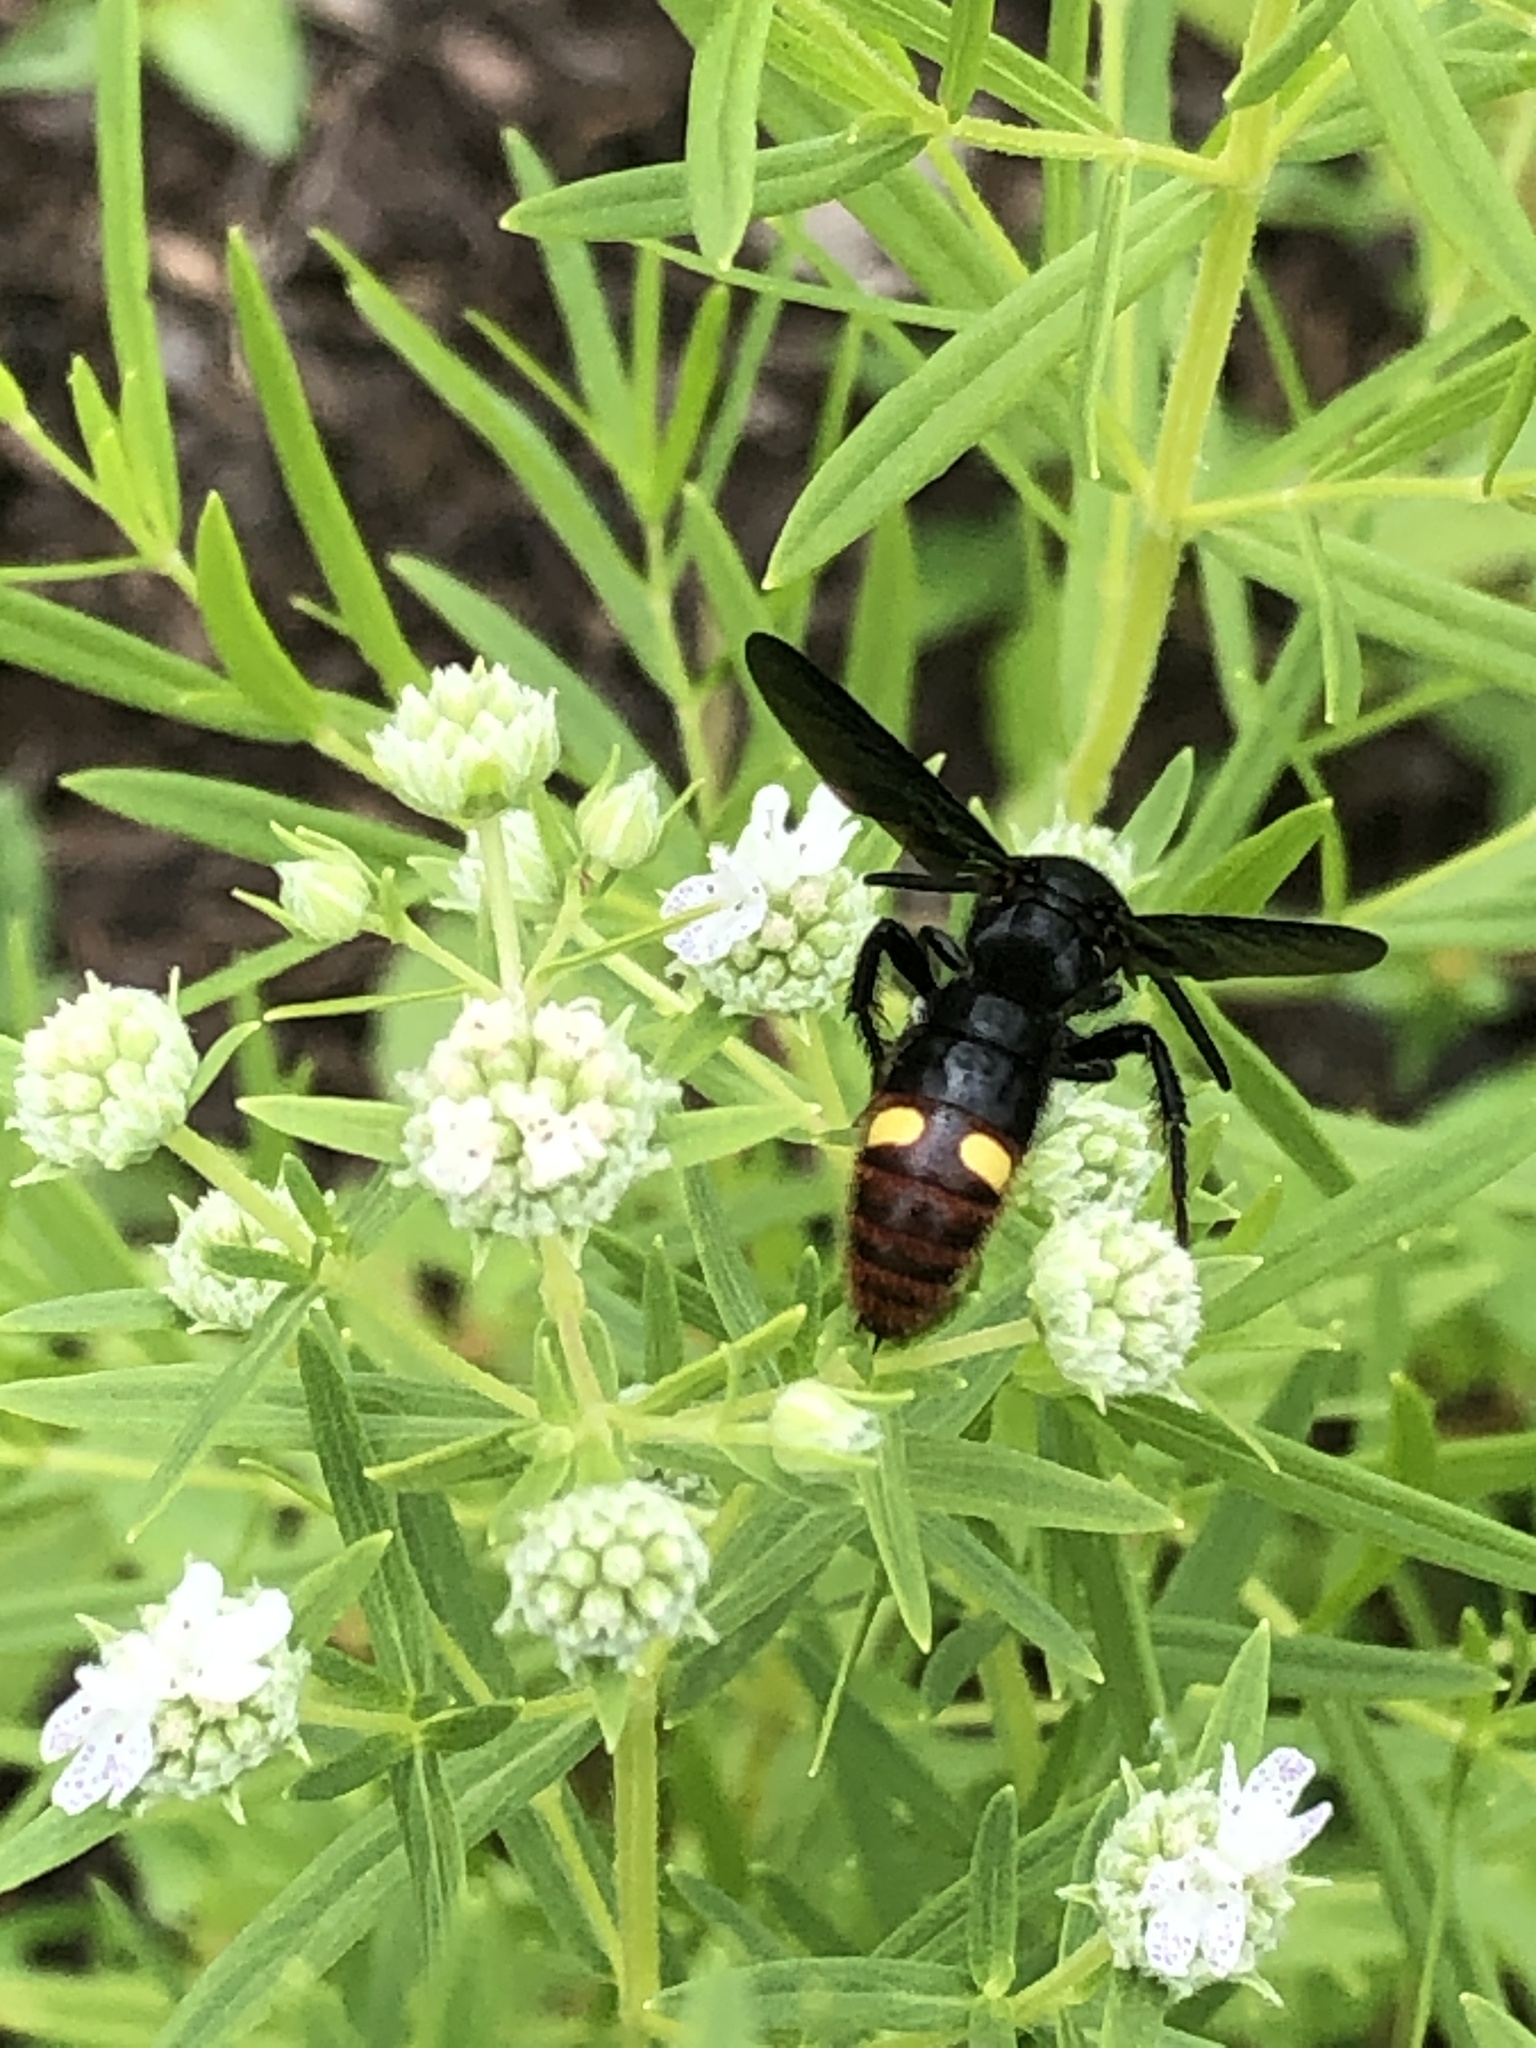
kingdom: Animalia
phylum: Arthropoda
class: Insecta
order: Hymenoptera
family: Scoliidae
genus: Scolia
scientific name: Scolia dubia
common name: Blue-winged scoliid wasp
